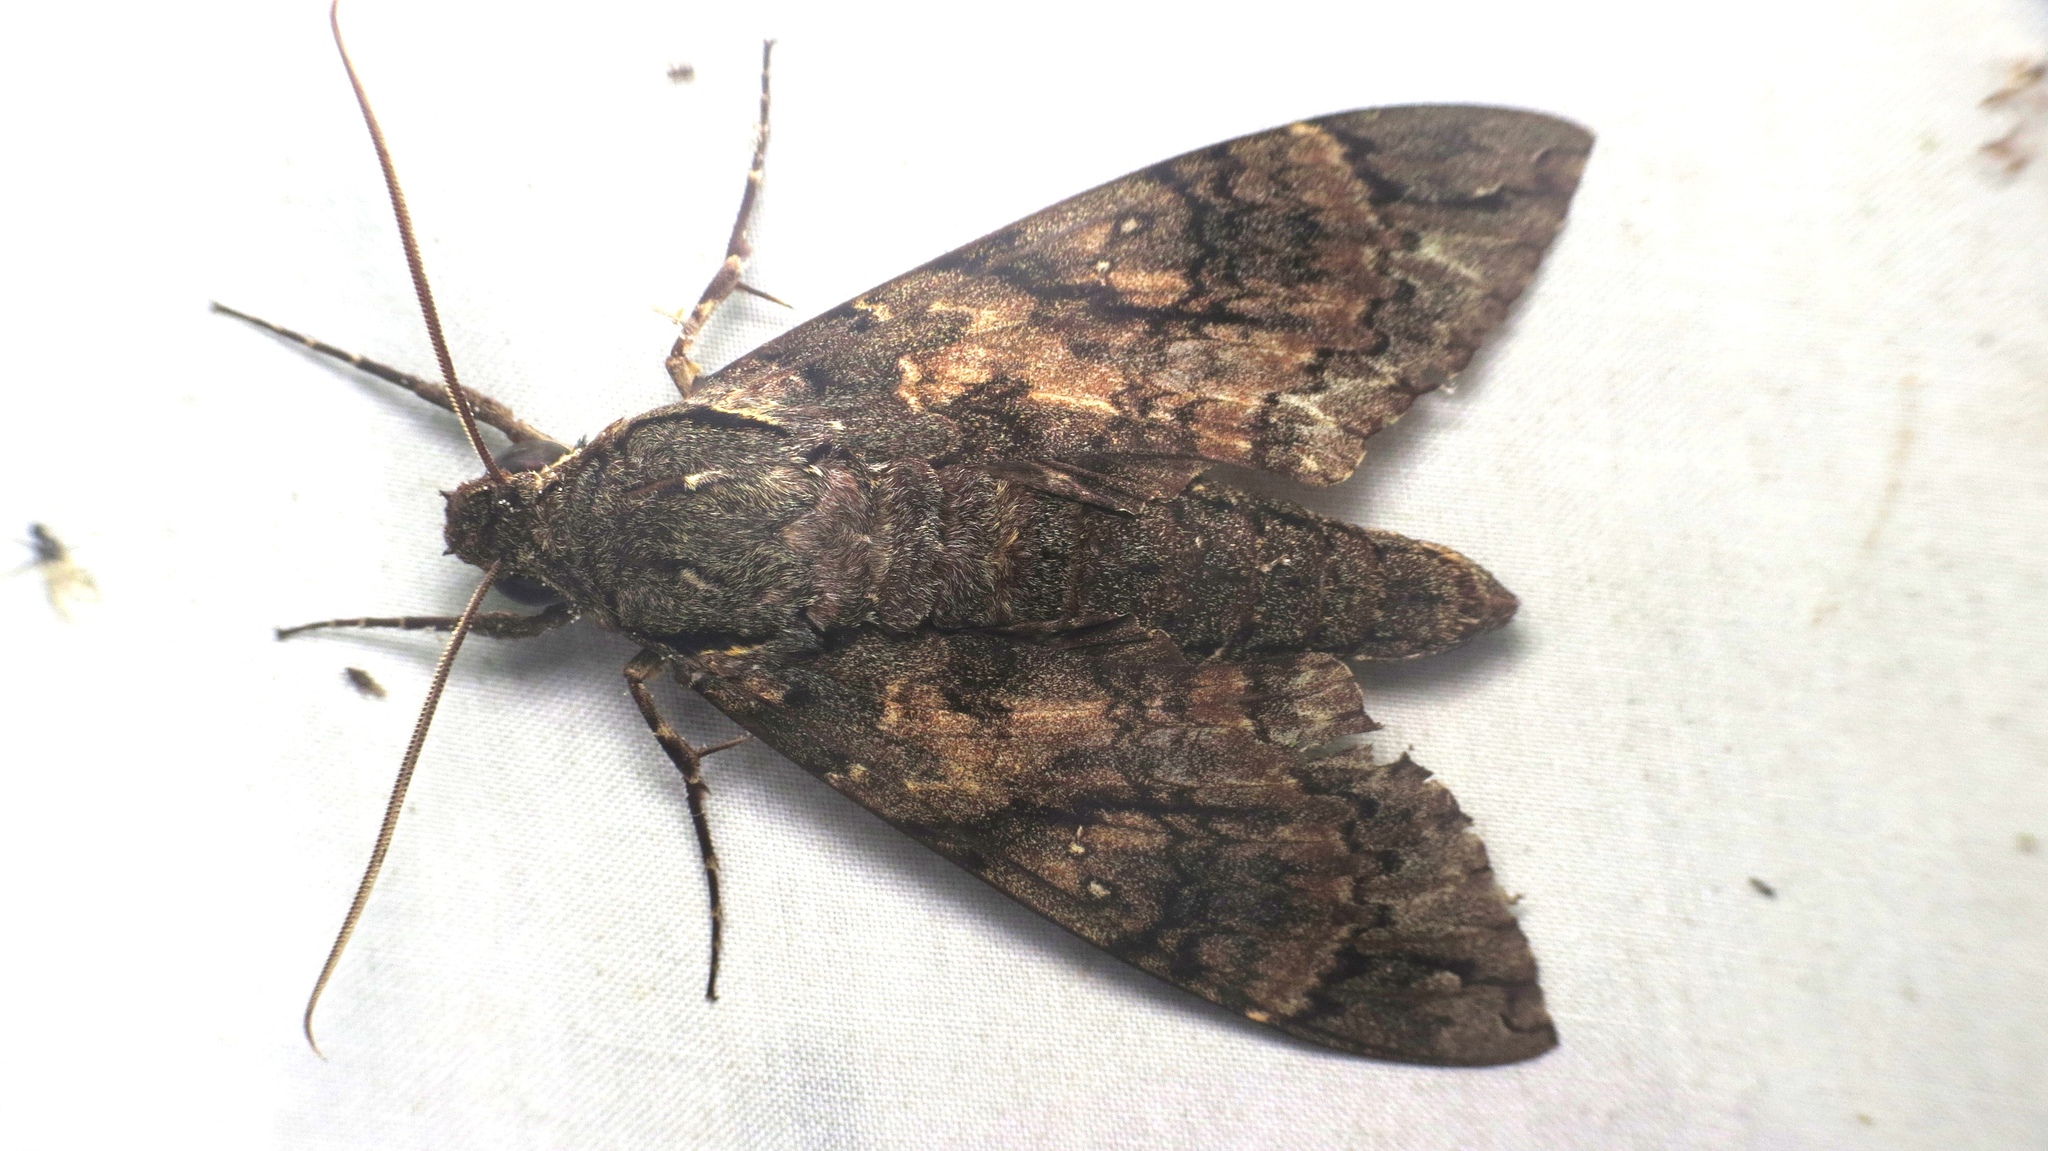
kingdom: Animalia
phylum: Arthropoda
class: Insecta
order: Lepidoptera
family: Sphingidae
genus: Cocytius
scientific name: Cocytius antaeus
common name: Giant sphinx
